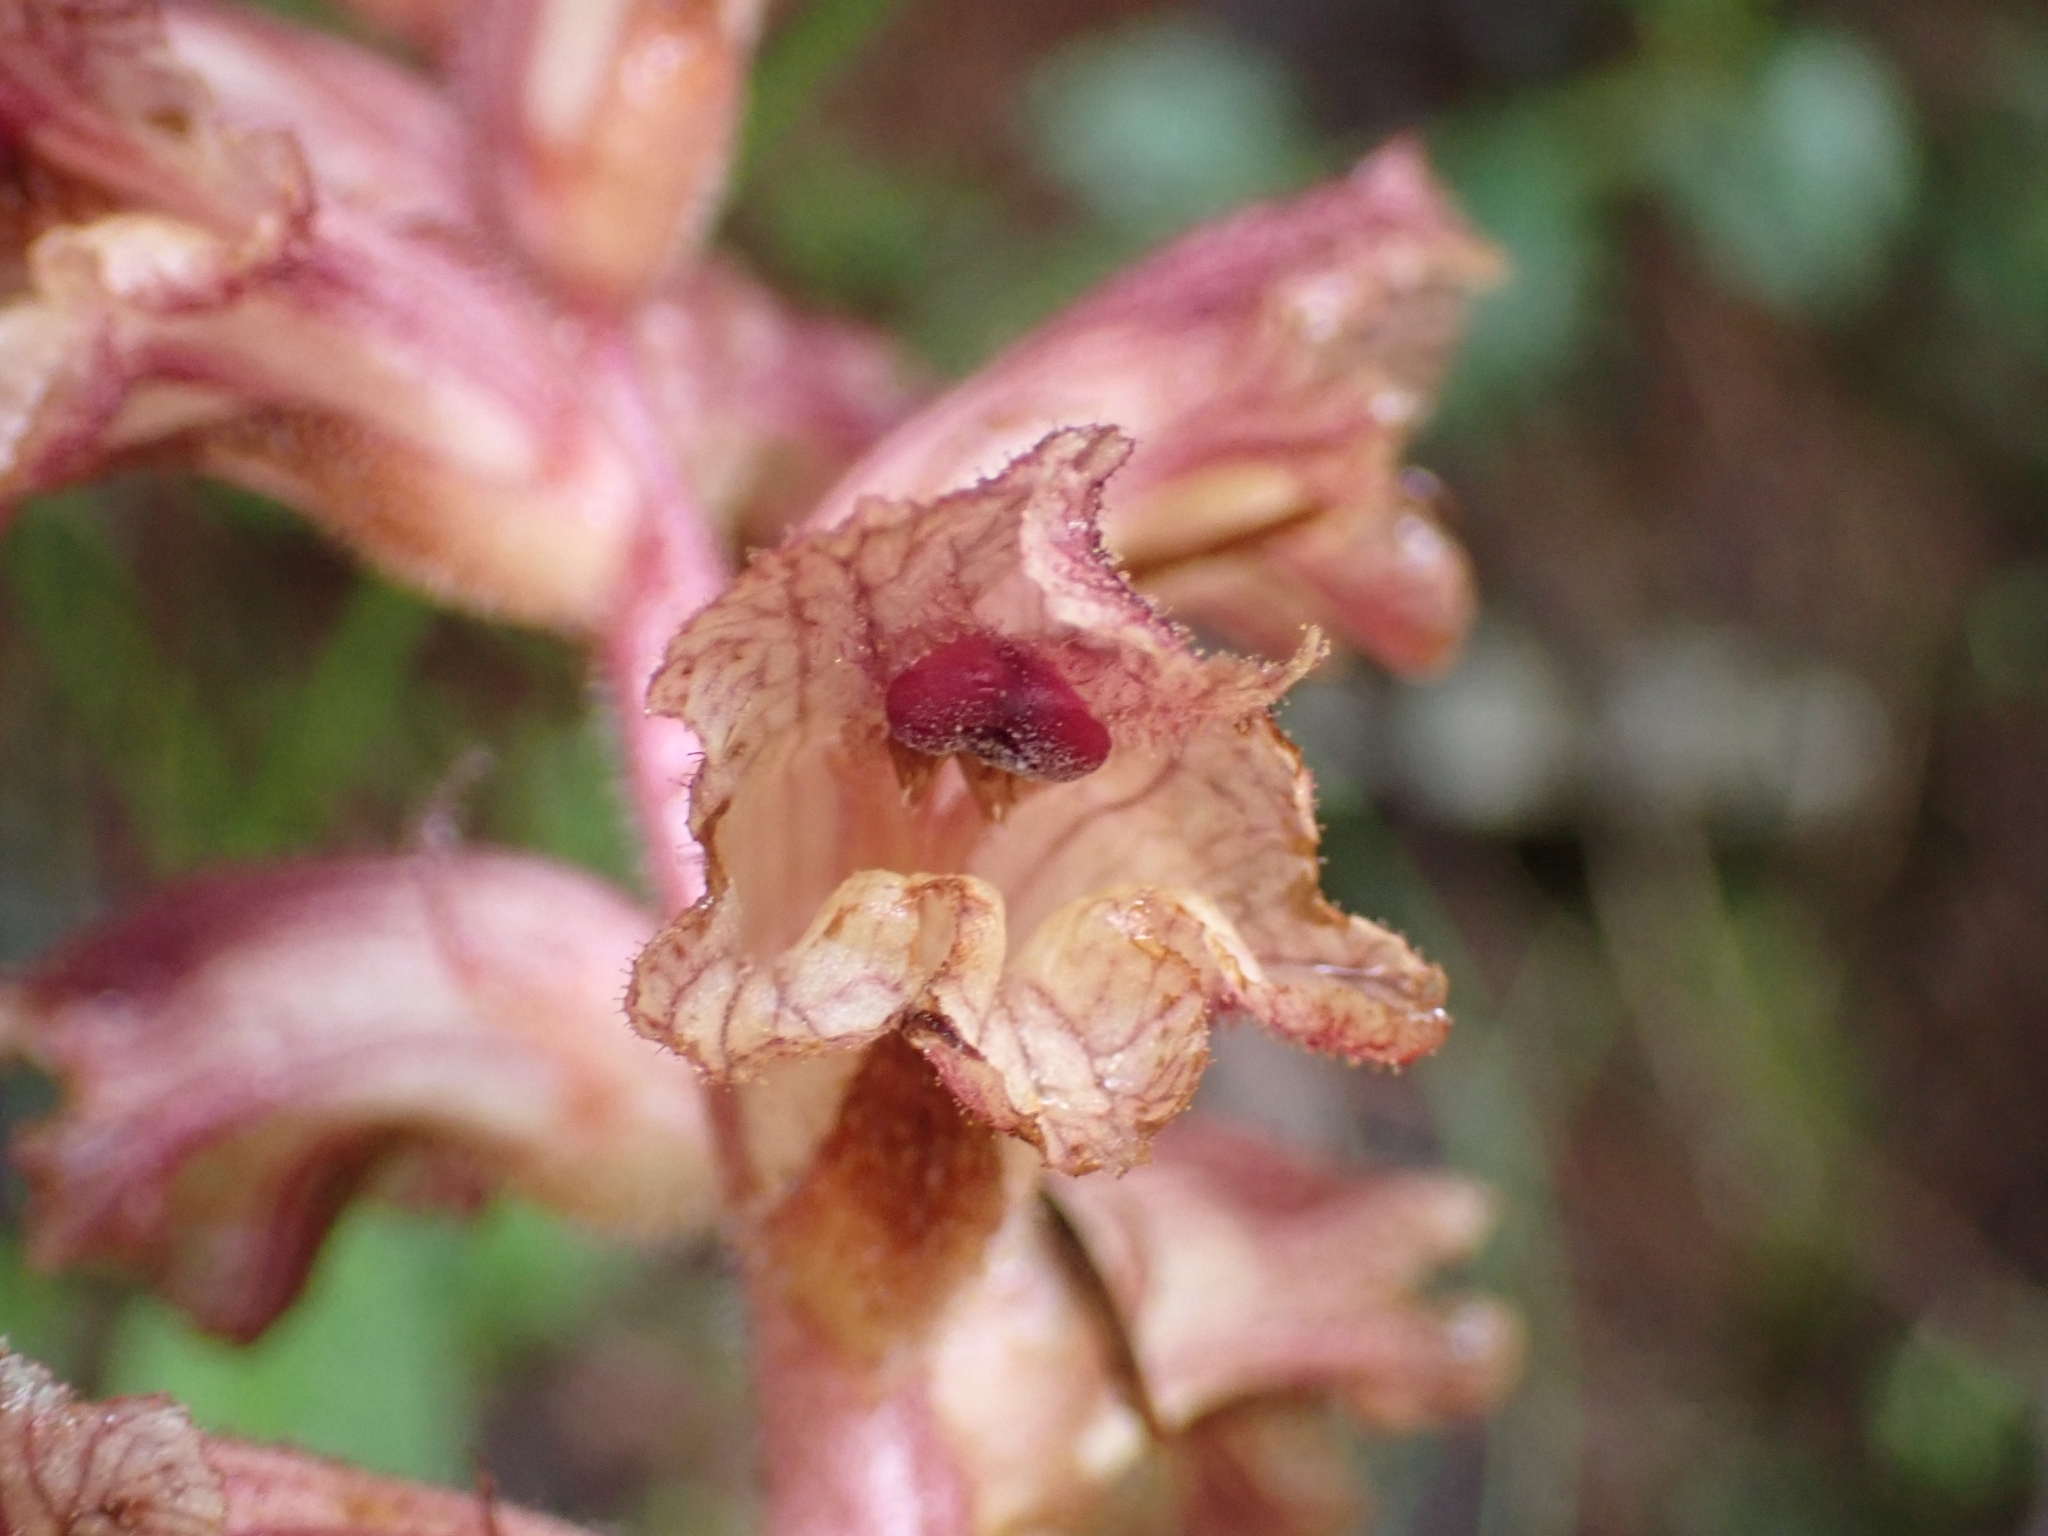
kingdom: Plantae
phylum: Tracheophyta
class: Magnoliopsida
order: Lamiales
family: Orobanchaceae
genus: Orobanche
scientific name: Orobanche alba
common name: Thyme broomrape
